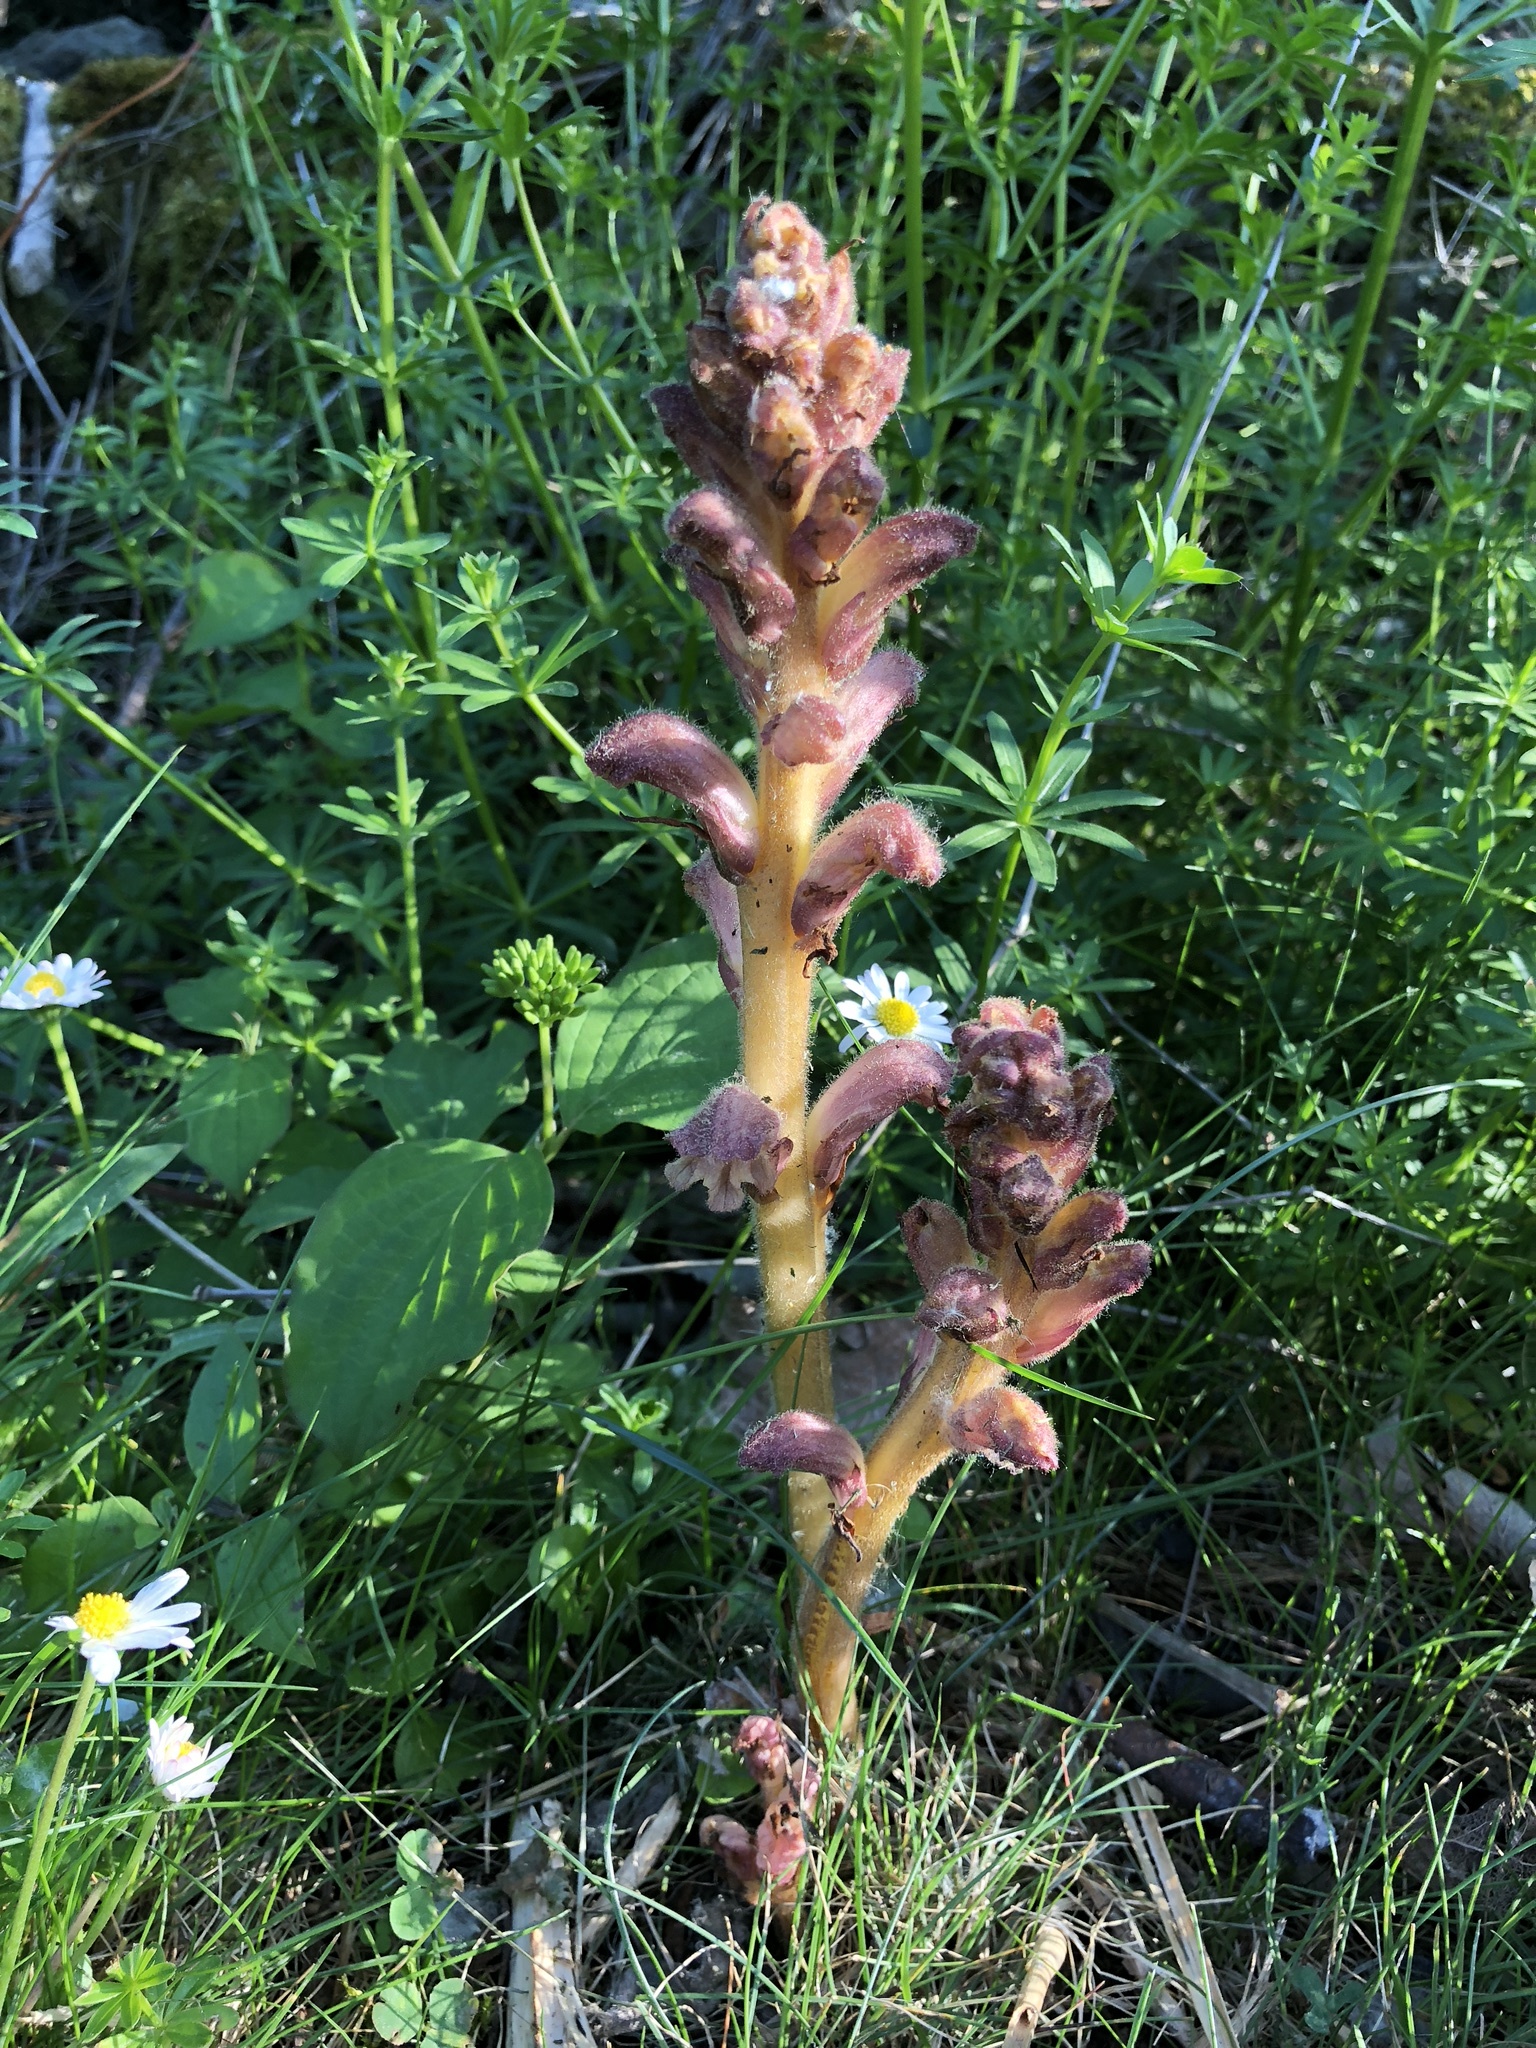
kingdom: Plantae
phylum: Tracheophyta
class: Magnoliopsida
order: Lamiales
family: Orobanchaceae
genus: Orobanche
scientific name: Orobanche caryophyllacea
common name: Bedstraw broomrape
